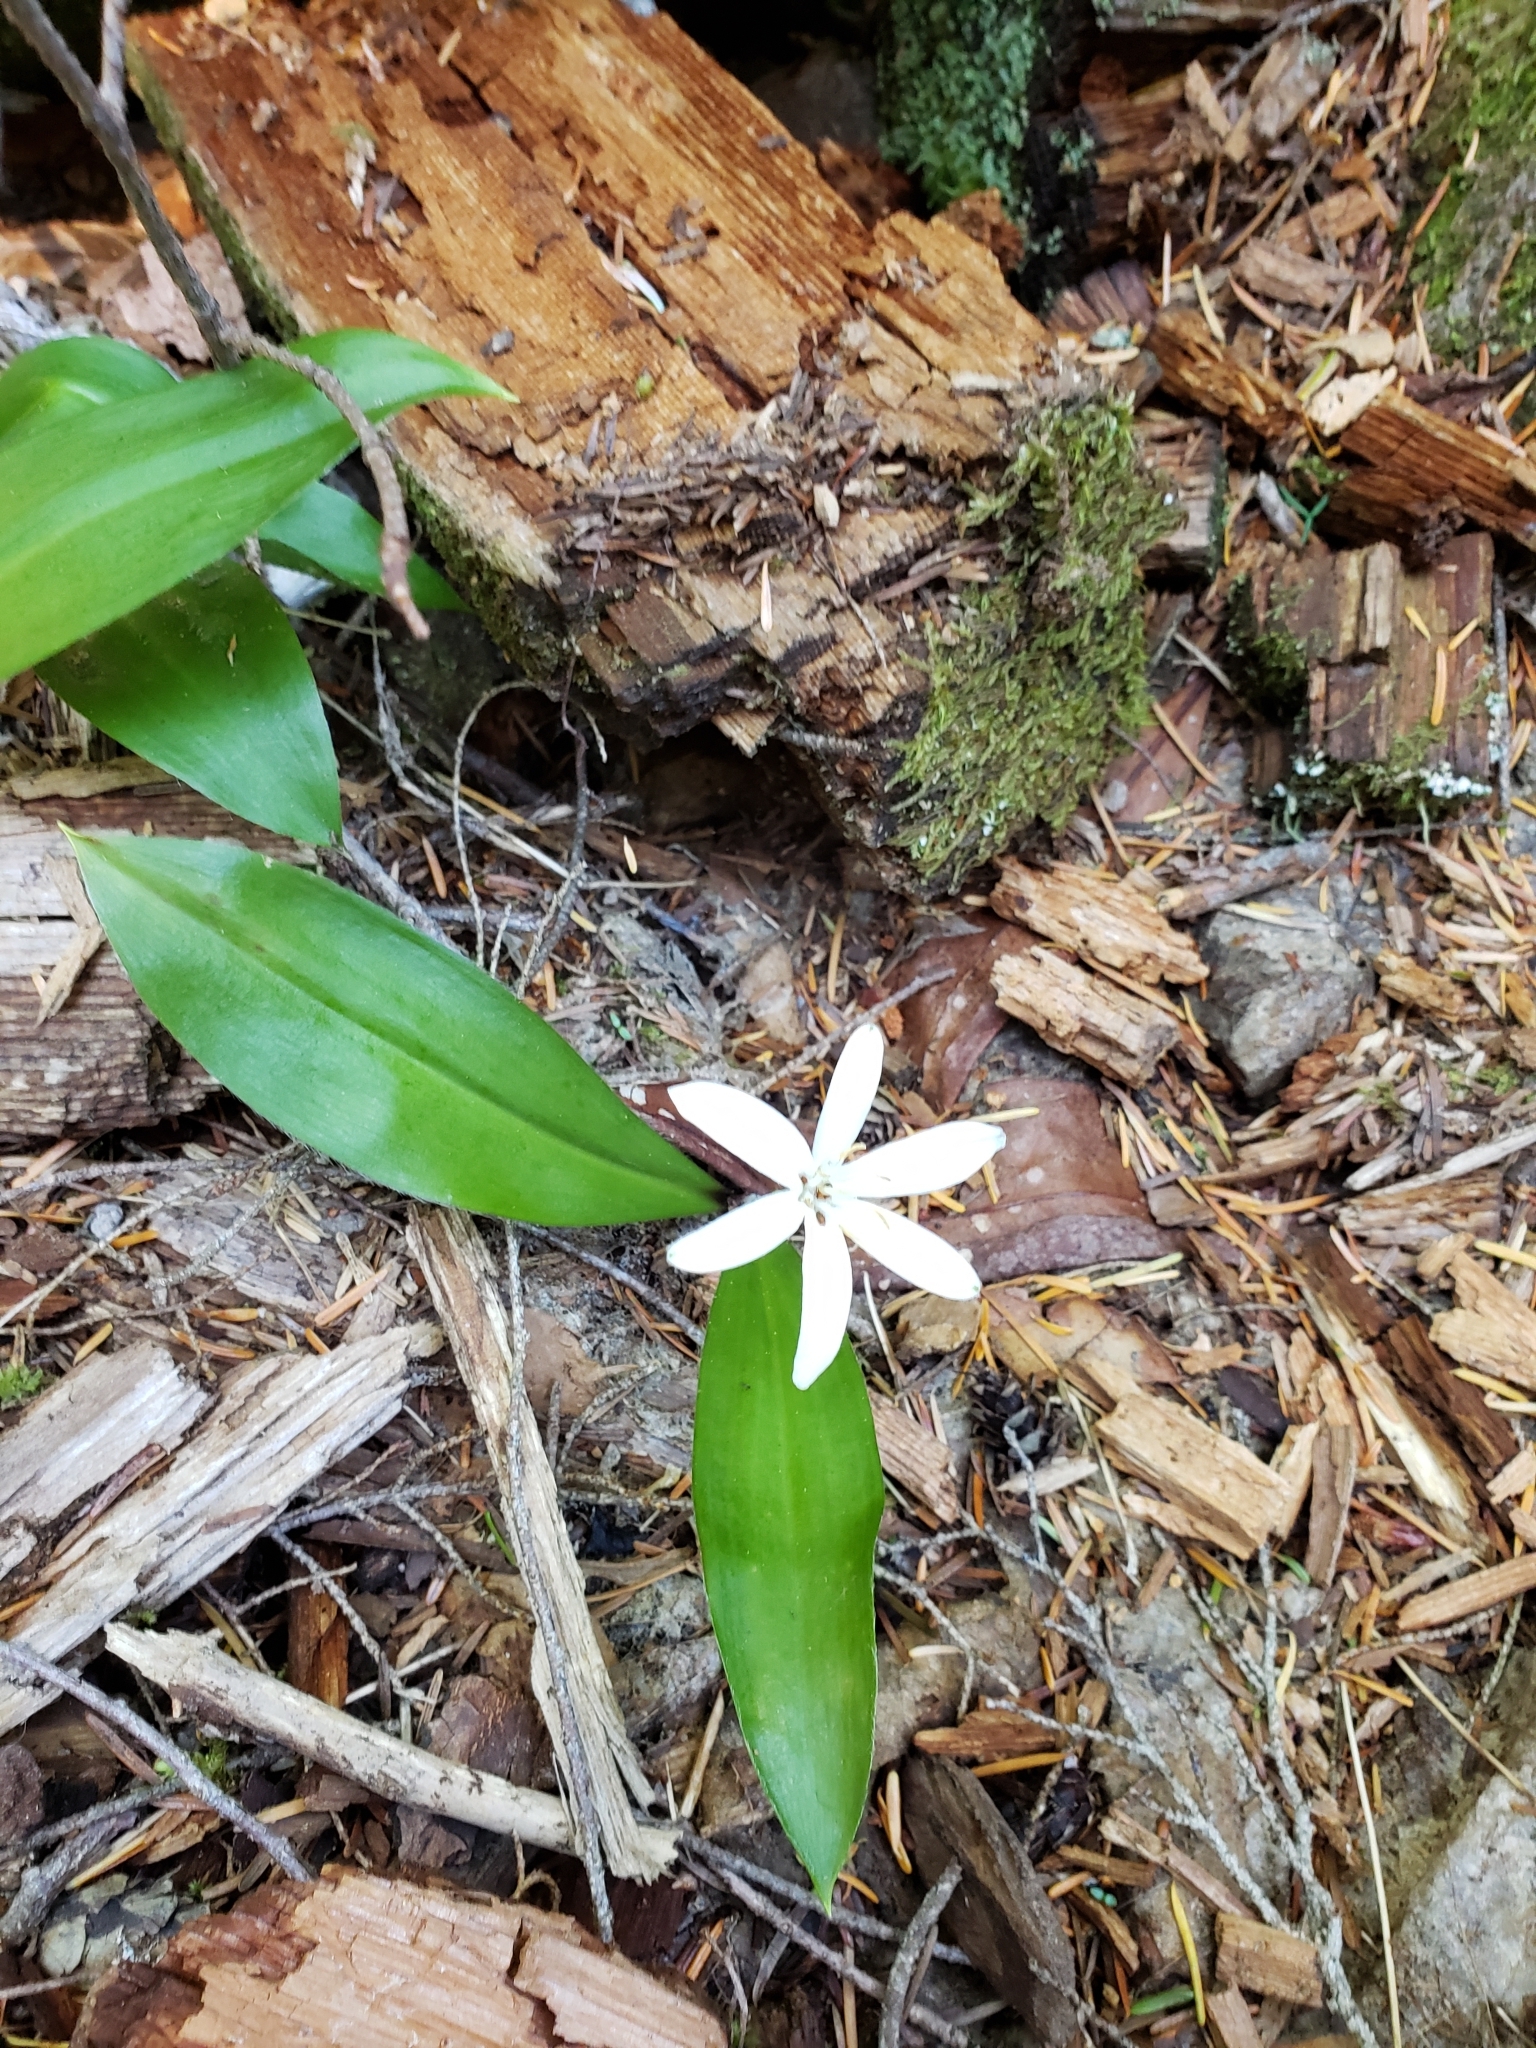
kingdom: Plantae
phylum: Tracheophyta
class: Liliopsida
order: Liliales
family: Liliaceae
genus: Clintonia
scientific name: Clintonia uniflora
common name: Queen's cup
